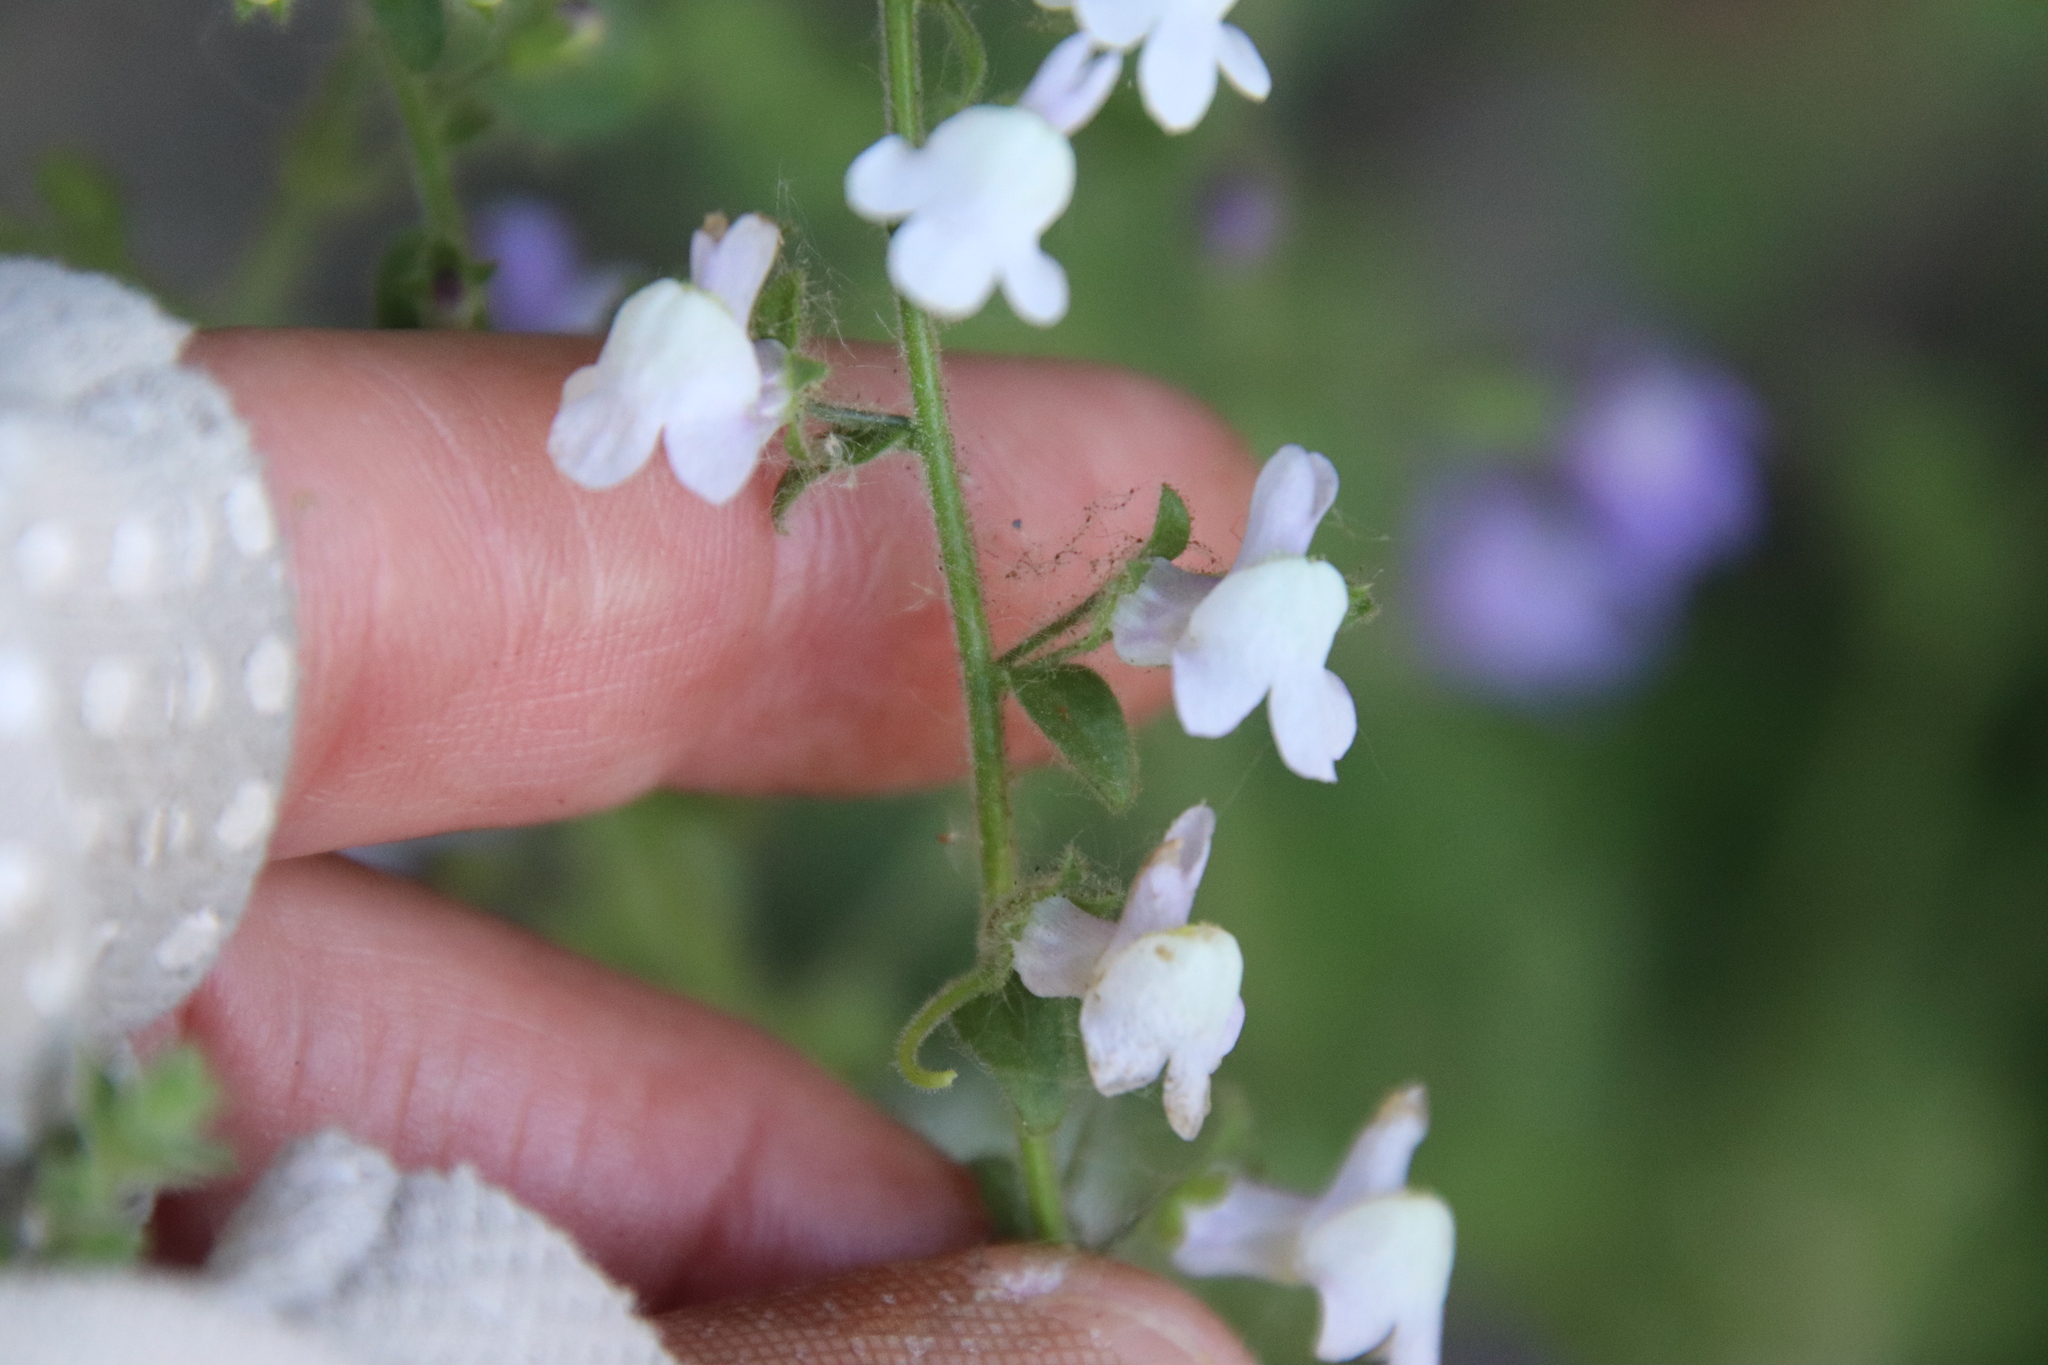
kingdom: Plantae
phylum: Tracheophyta
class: Magnoliopsida
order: Lamiales
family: Plantaginaceae
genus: Sairocarpus
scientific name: Sairocarpus nuttallianus
